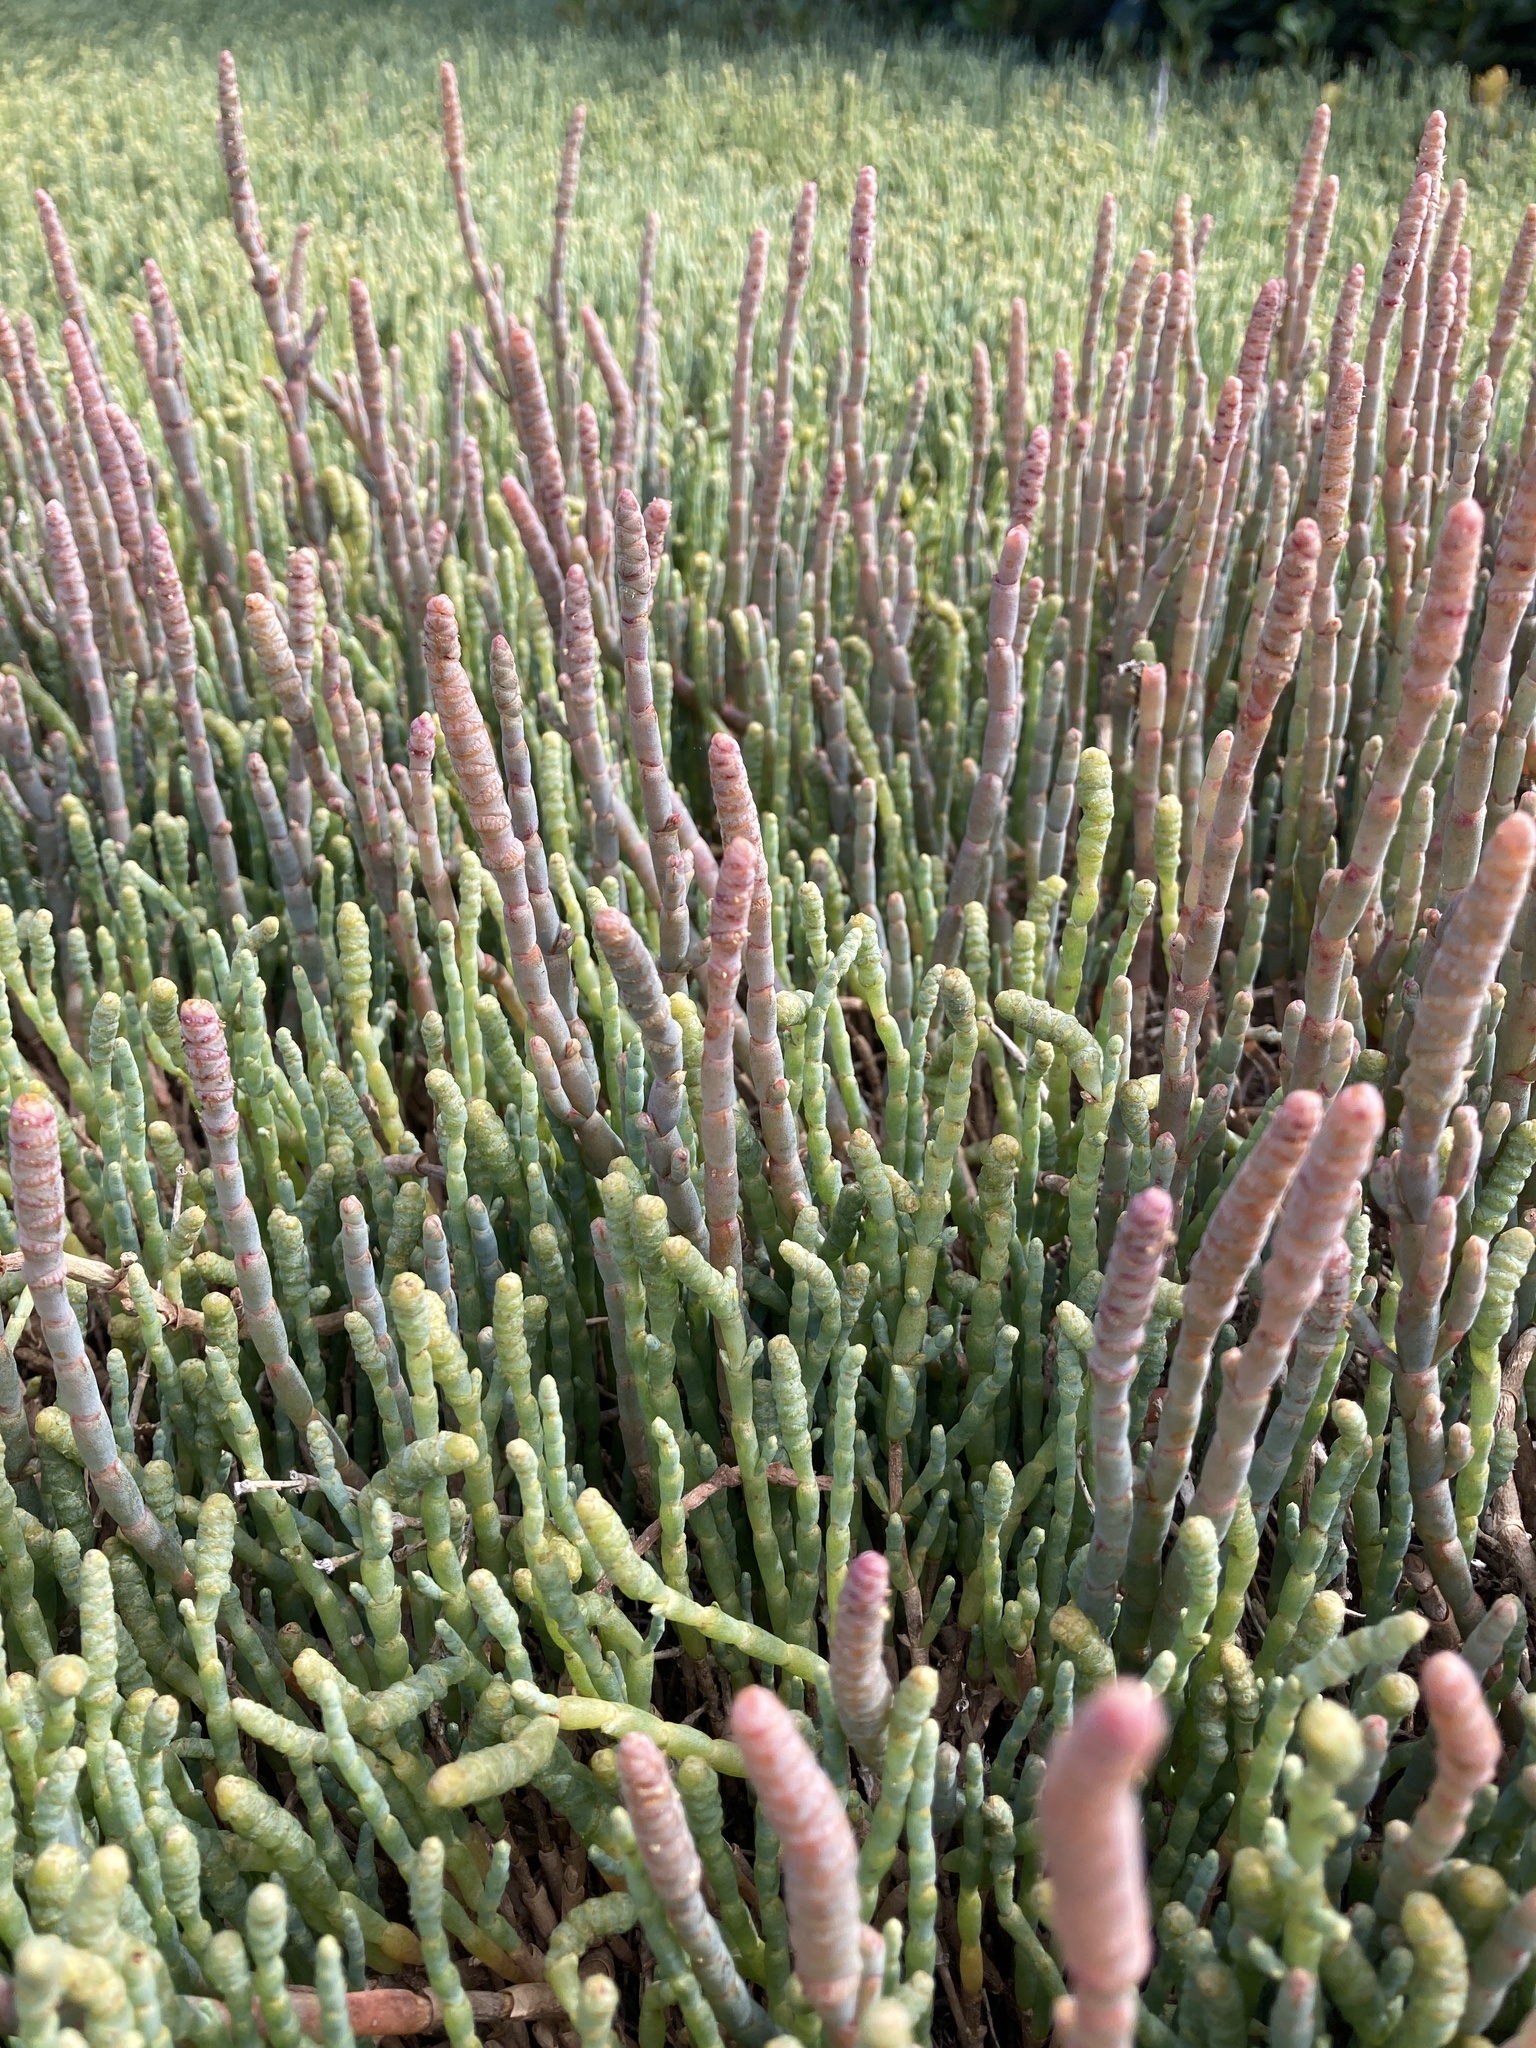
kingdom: Plantae
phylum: Tracheophyta
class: Magnoliopsida
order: Caryophyllales
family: Amaranthaceae
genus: Salicornia
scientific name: Salicornia quinqueflora
